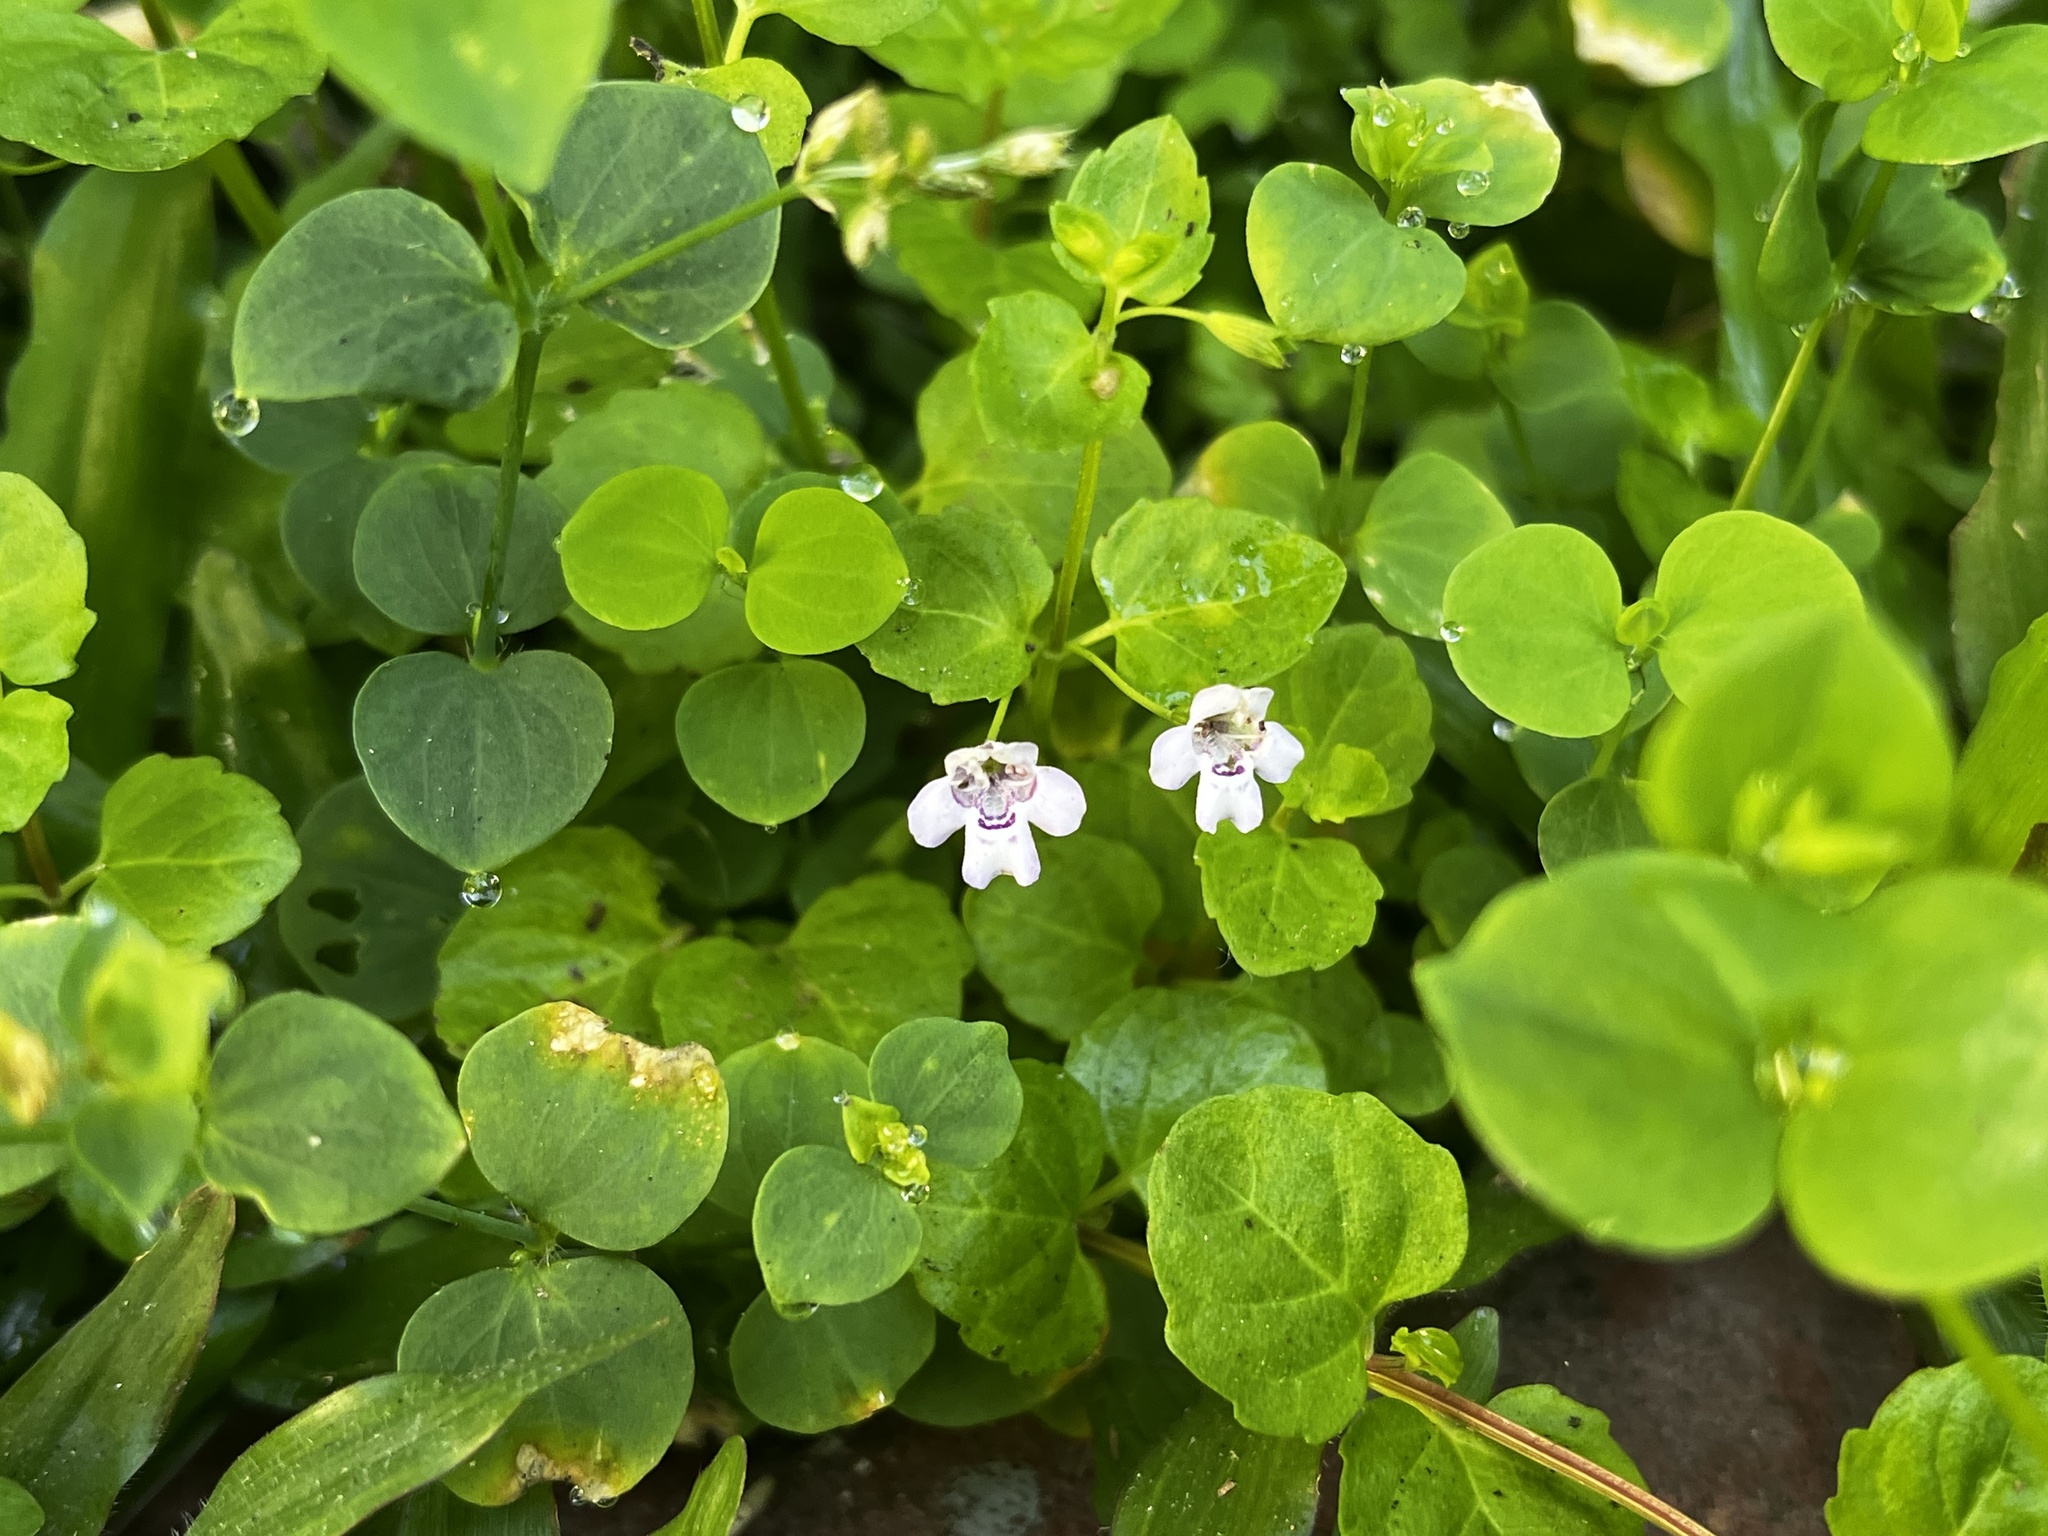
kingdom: Plantae
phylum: Tracheophyta
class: Magnoliopsida
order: Lamiales
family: Lamiaceae
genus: Clinopodium
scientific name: Clinopodium brownei
